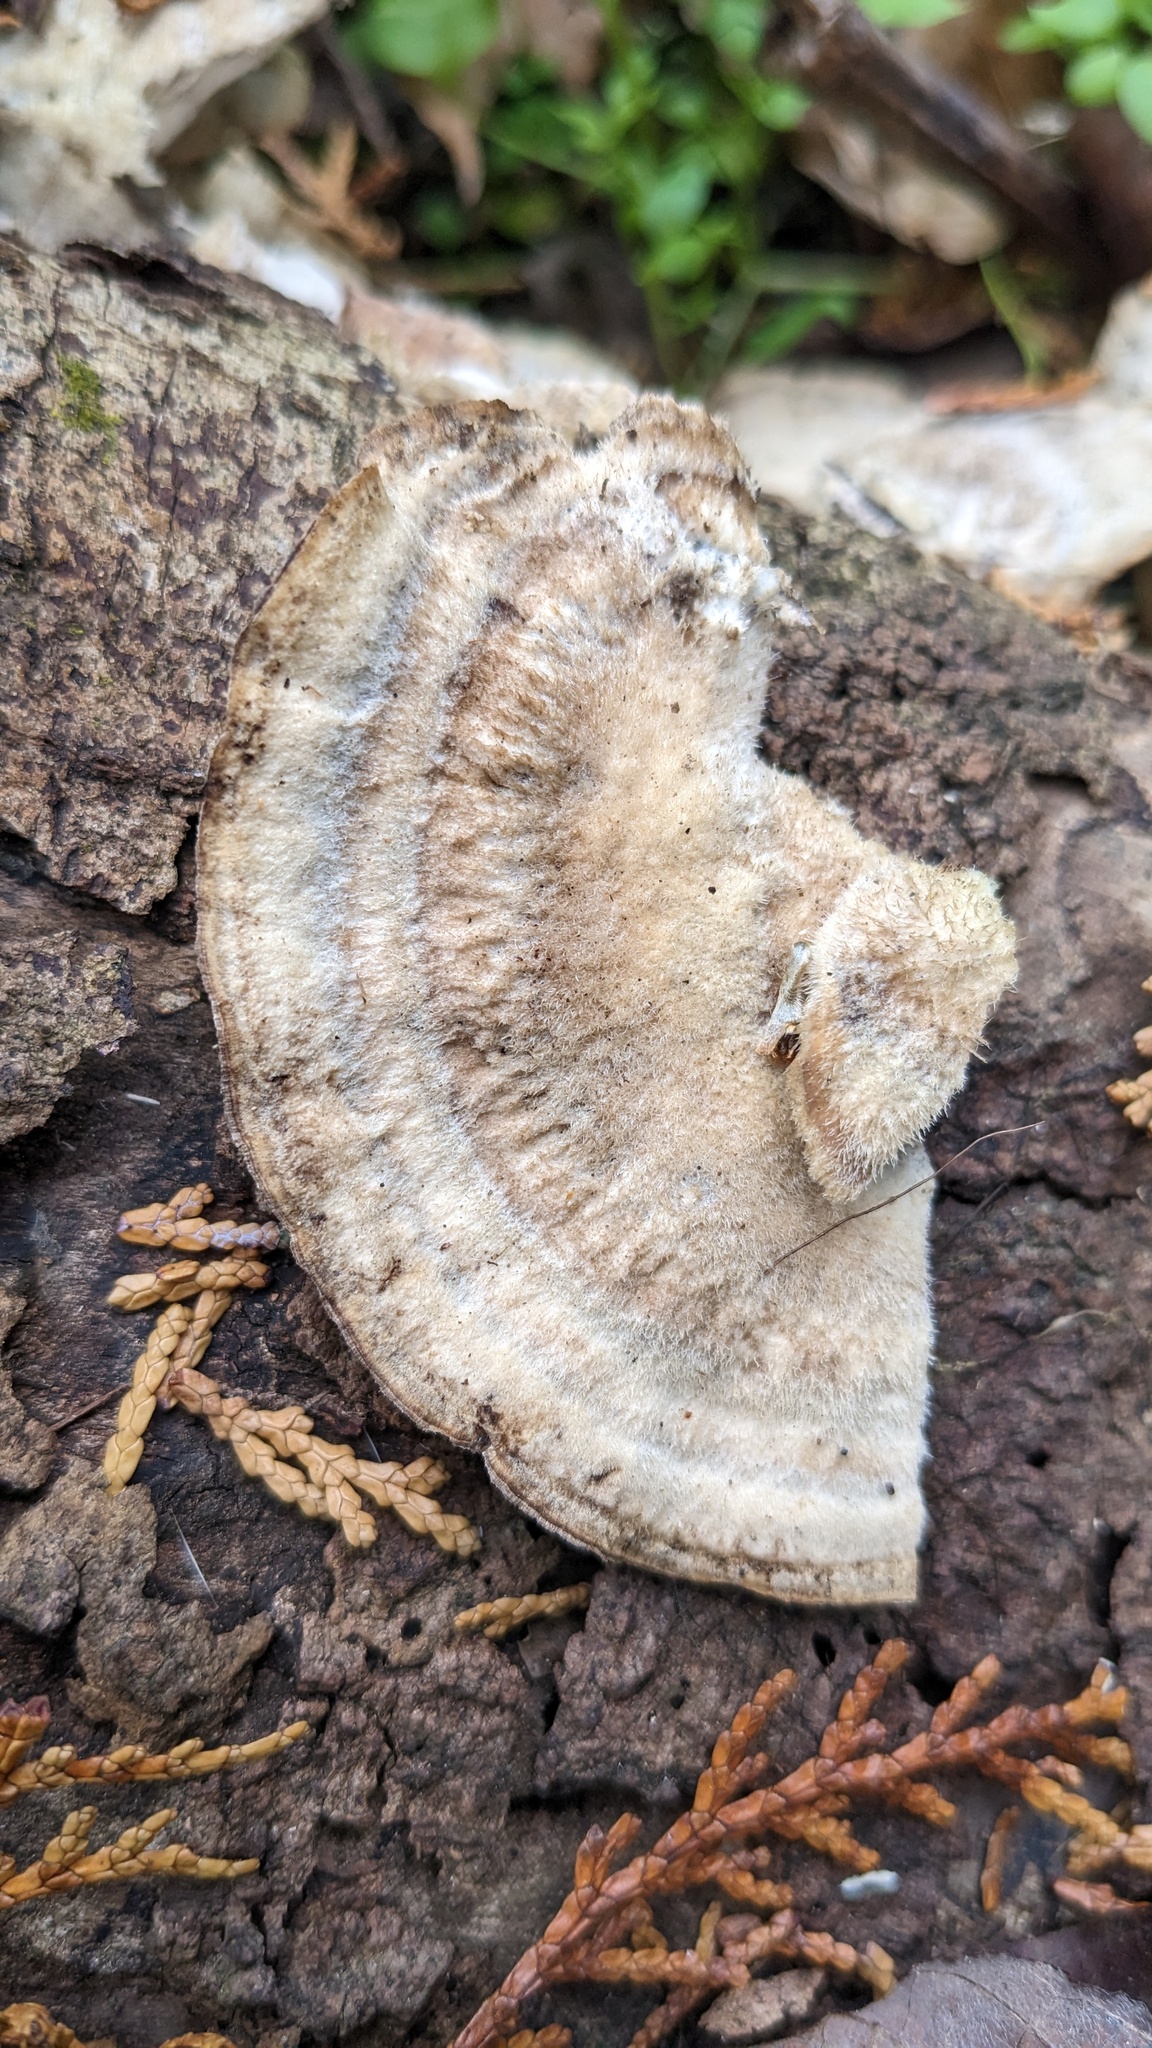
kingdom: Fungi
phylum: Basidiomycota
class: Agaricomycetes
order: Polyporales
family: Phanerochaetaceae
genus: Bjerkandera
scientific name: Bjerkandera adusta
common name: Smoky bracket
